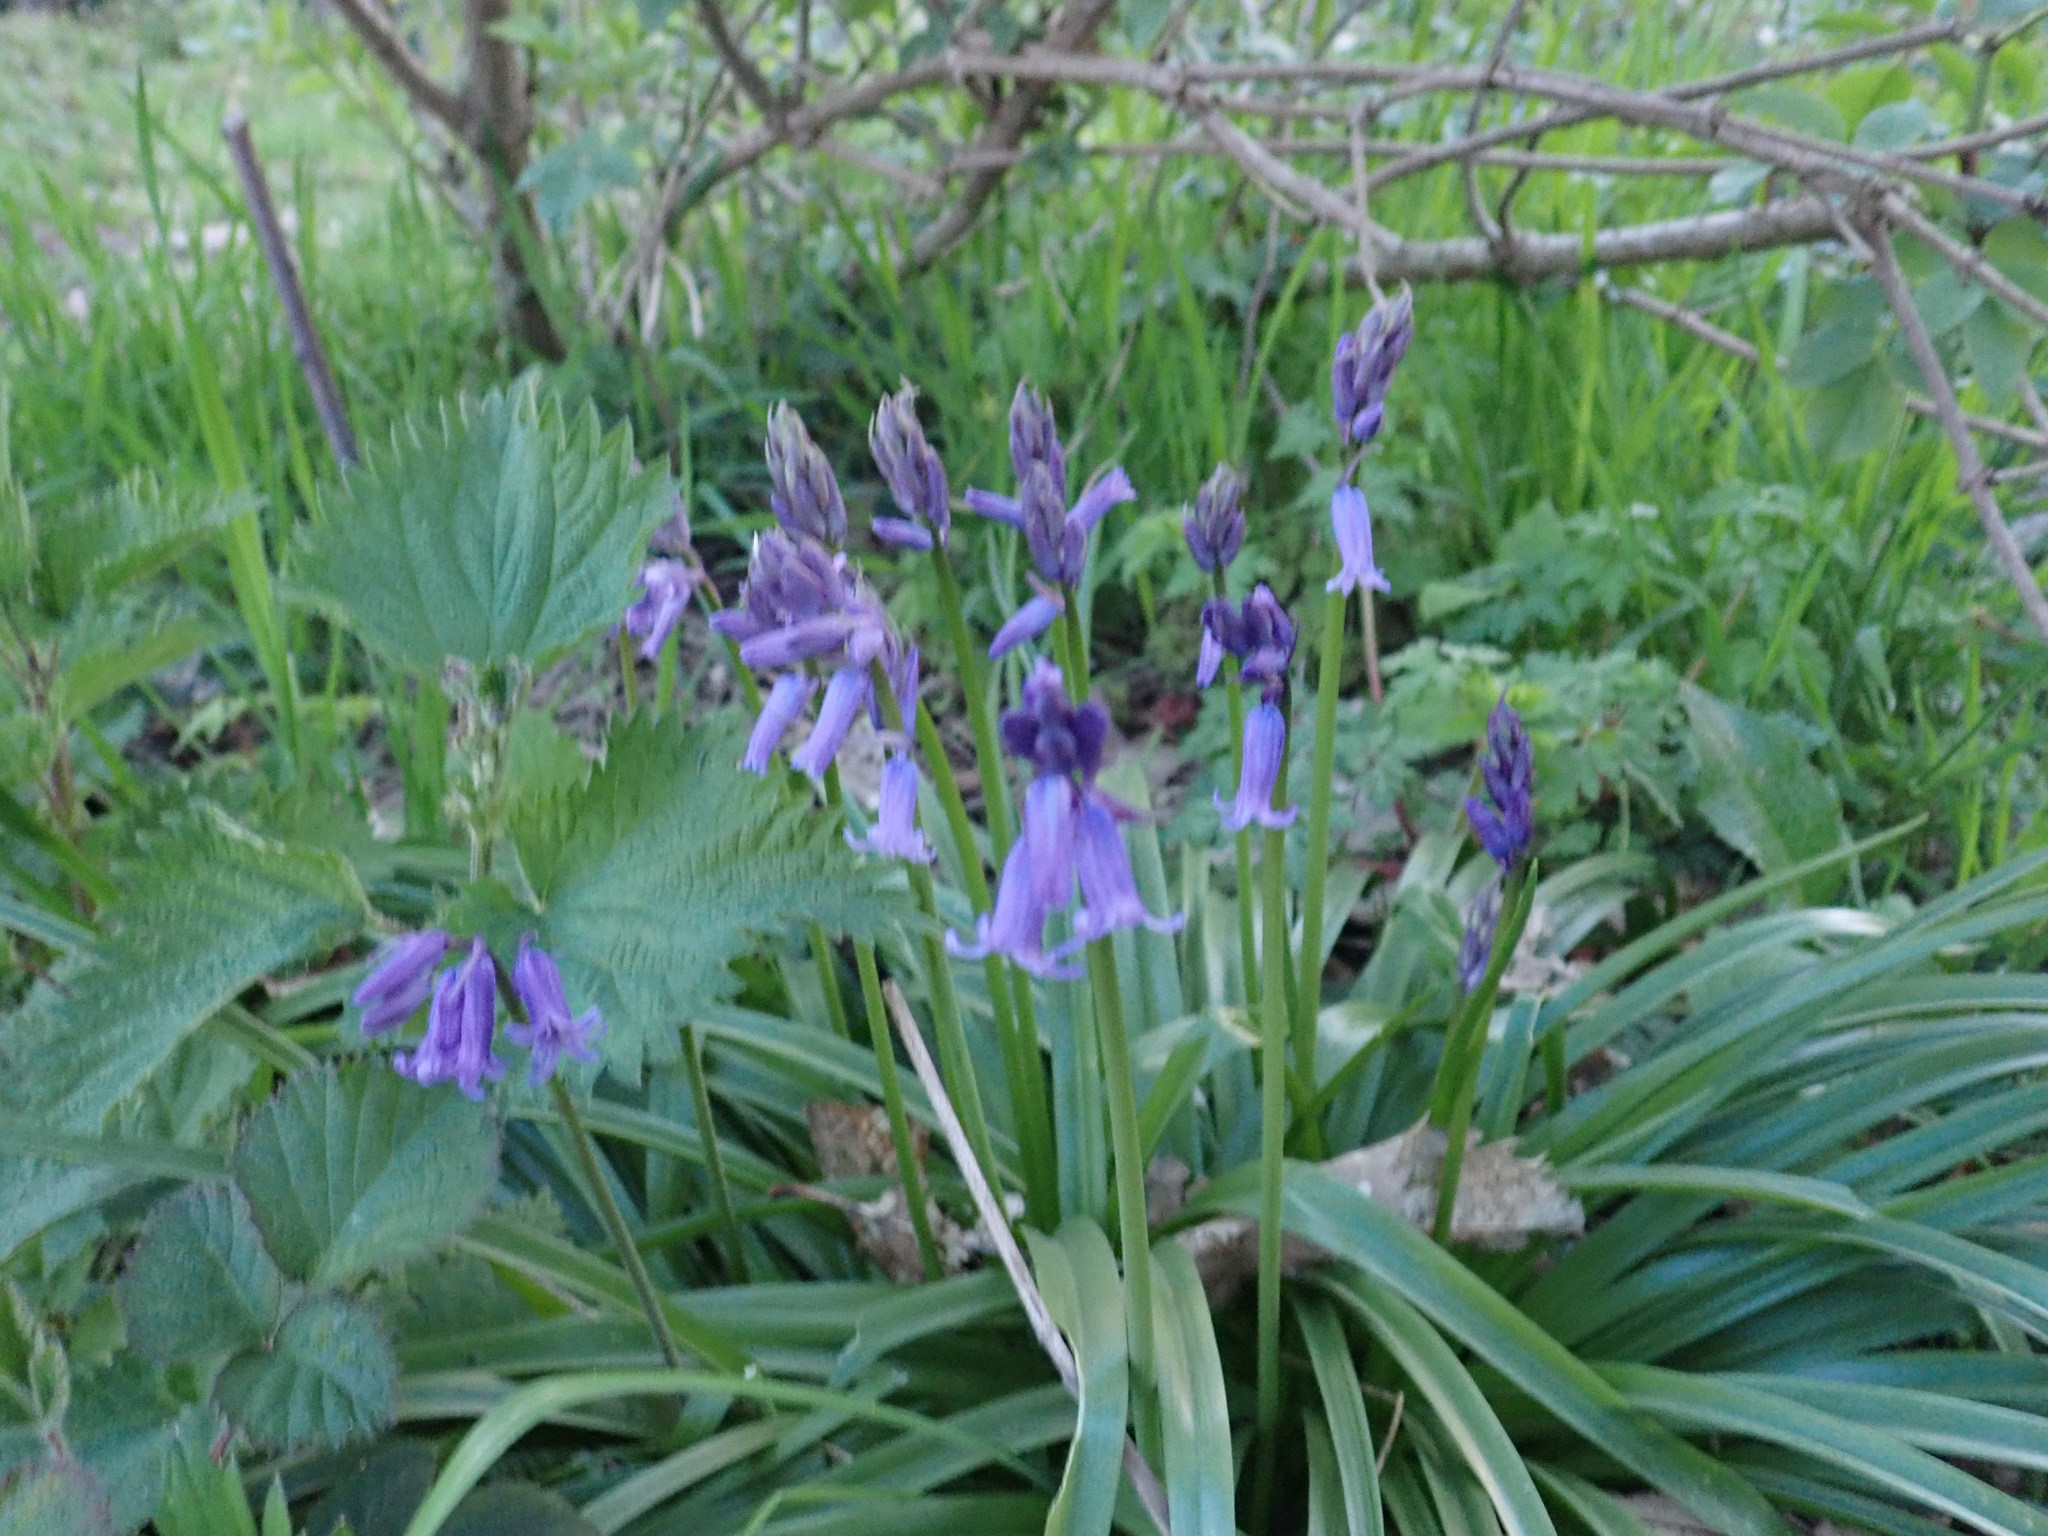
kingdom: Plantae
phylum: Tracheophyta
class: Liliopsida
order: Asparagales
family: Asparagaceae
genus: Hyacinthoides
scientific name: Hyacinthoides non-scripta
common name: Bluebell
